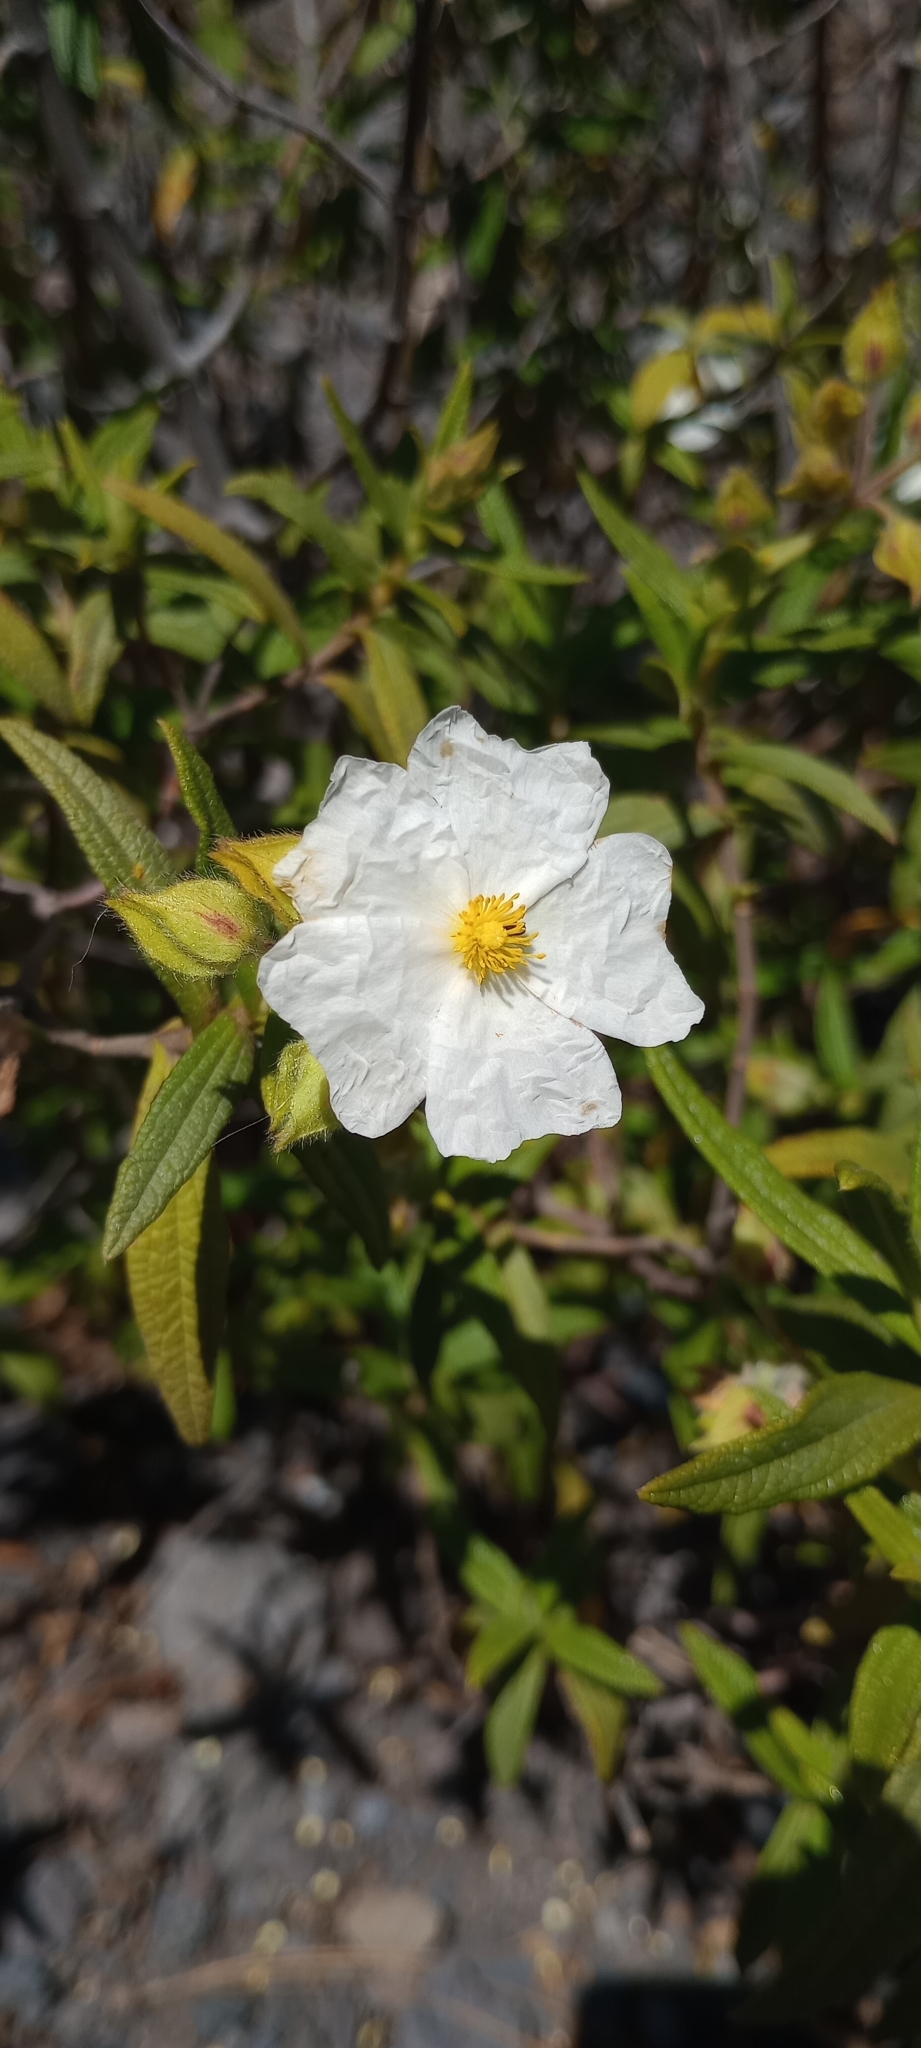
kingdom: Plantae
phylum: Tracheophyta
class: Magnoliopsida
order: Malvales
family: Cistaceae
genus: Cistus
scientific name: Cistus monspeliensis
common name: Montpelier cistus
